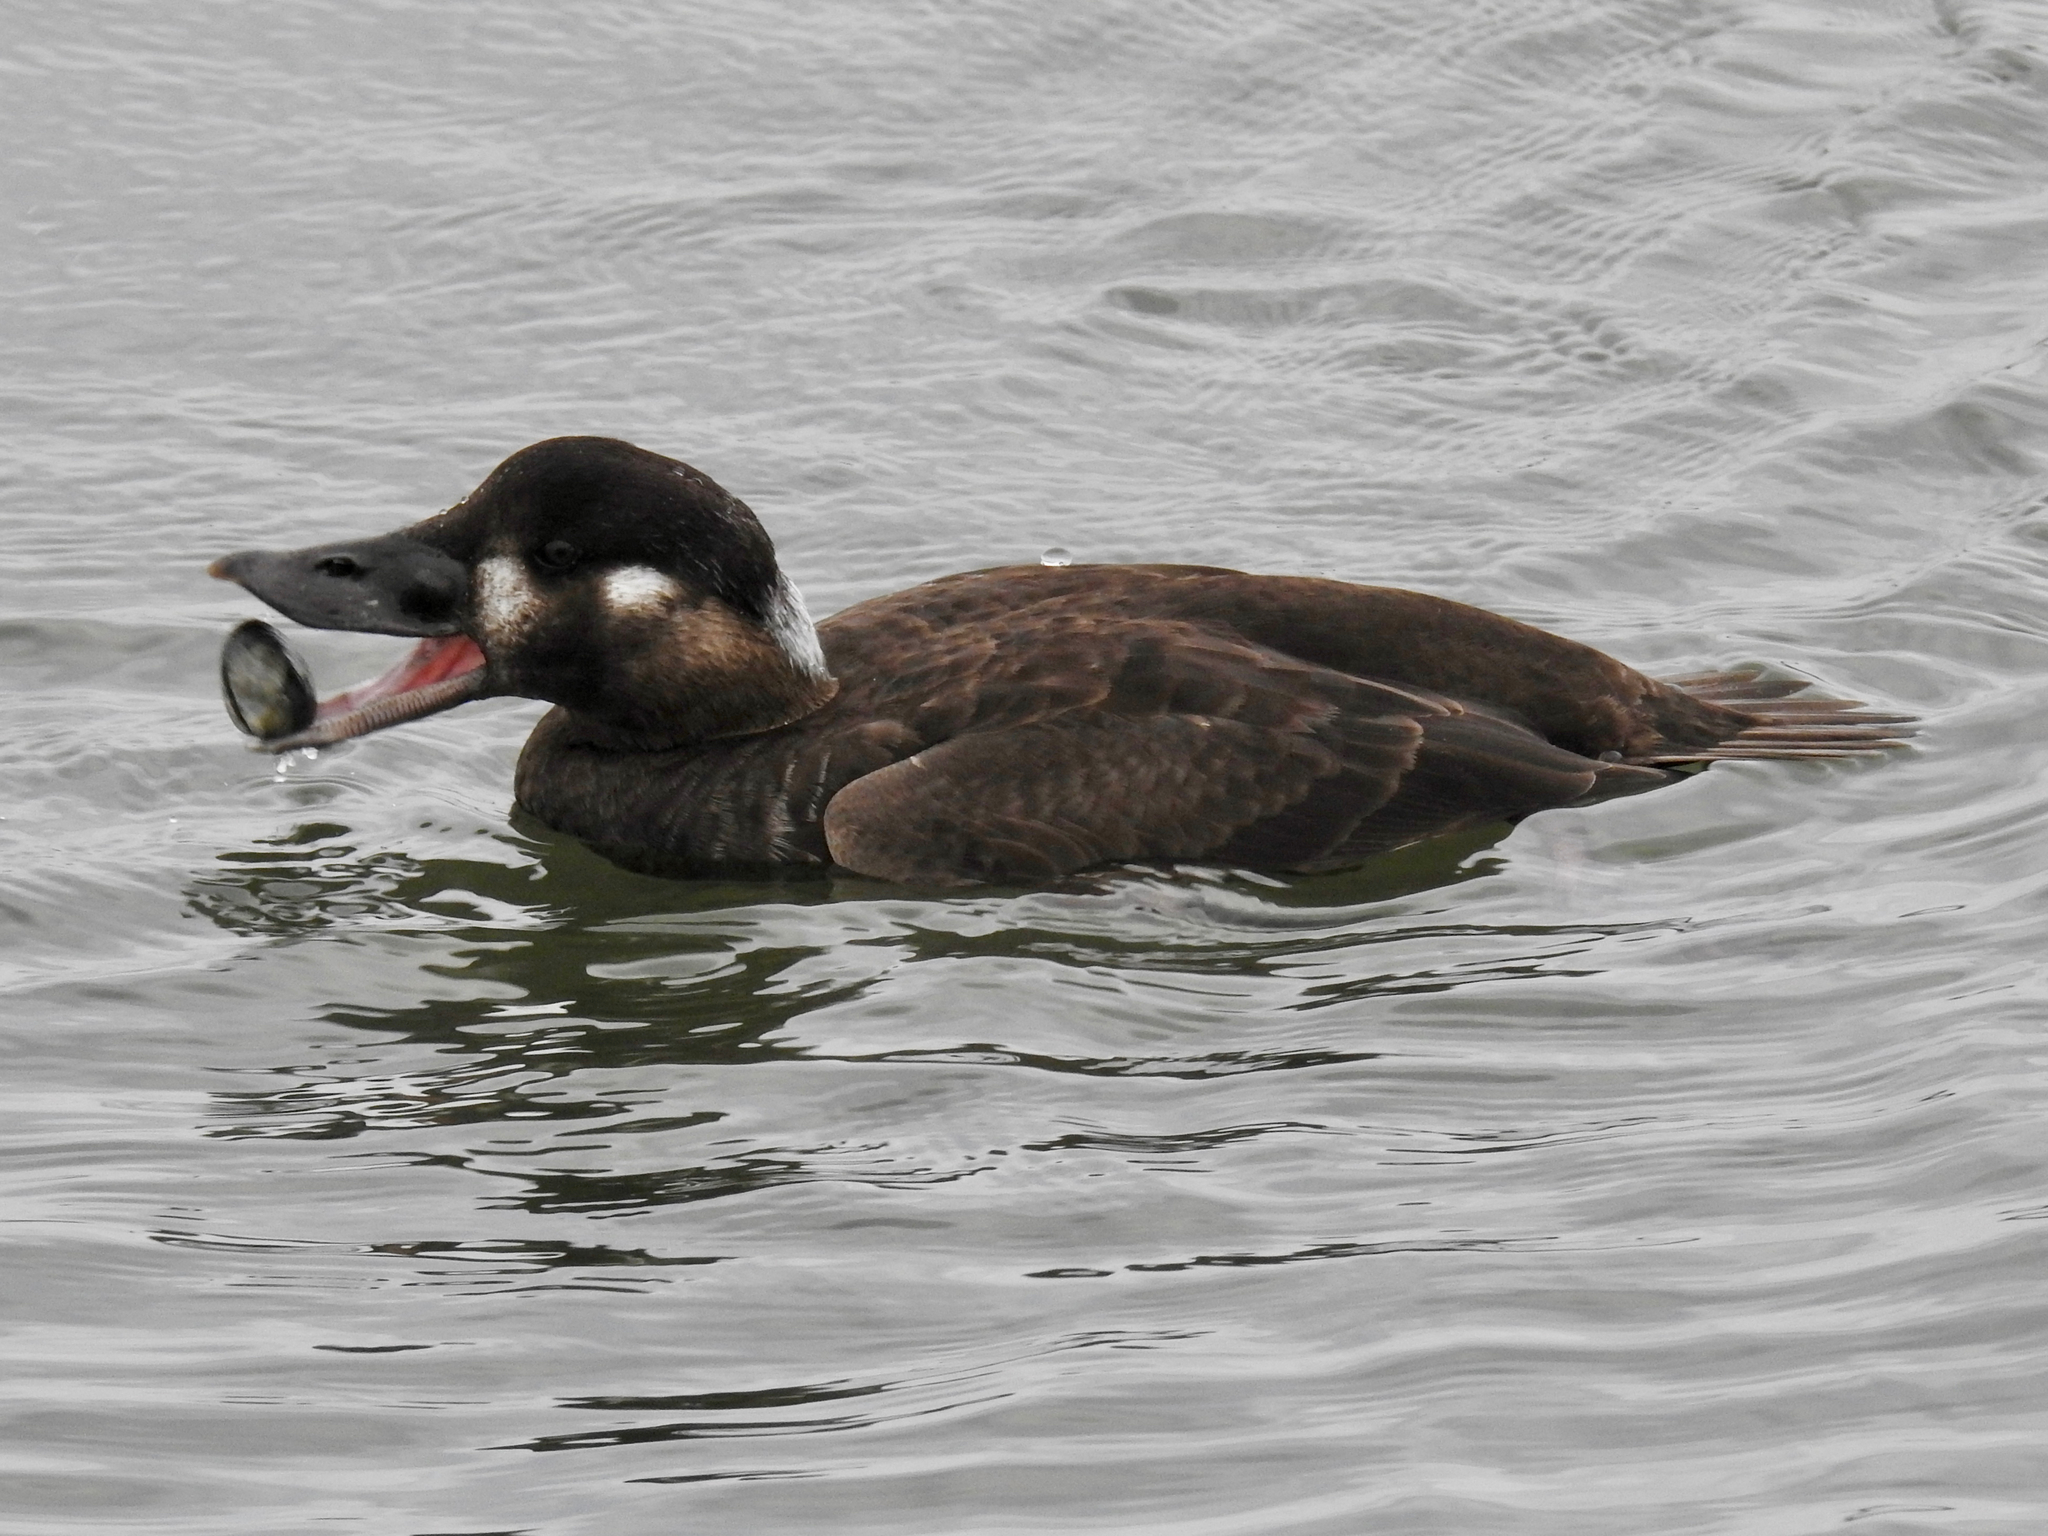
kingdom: Animalia
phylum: Chordata
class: Aves
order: Anseriformes
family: Anatidae
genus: Melanitta
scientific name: Melanitta perspicillata
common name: Surf scoter
